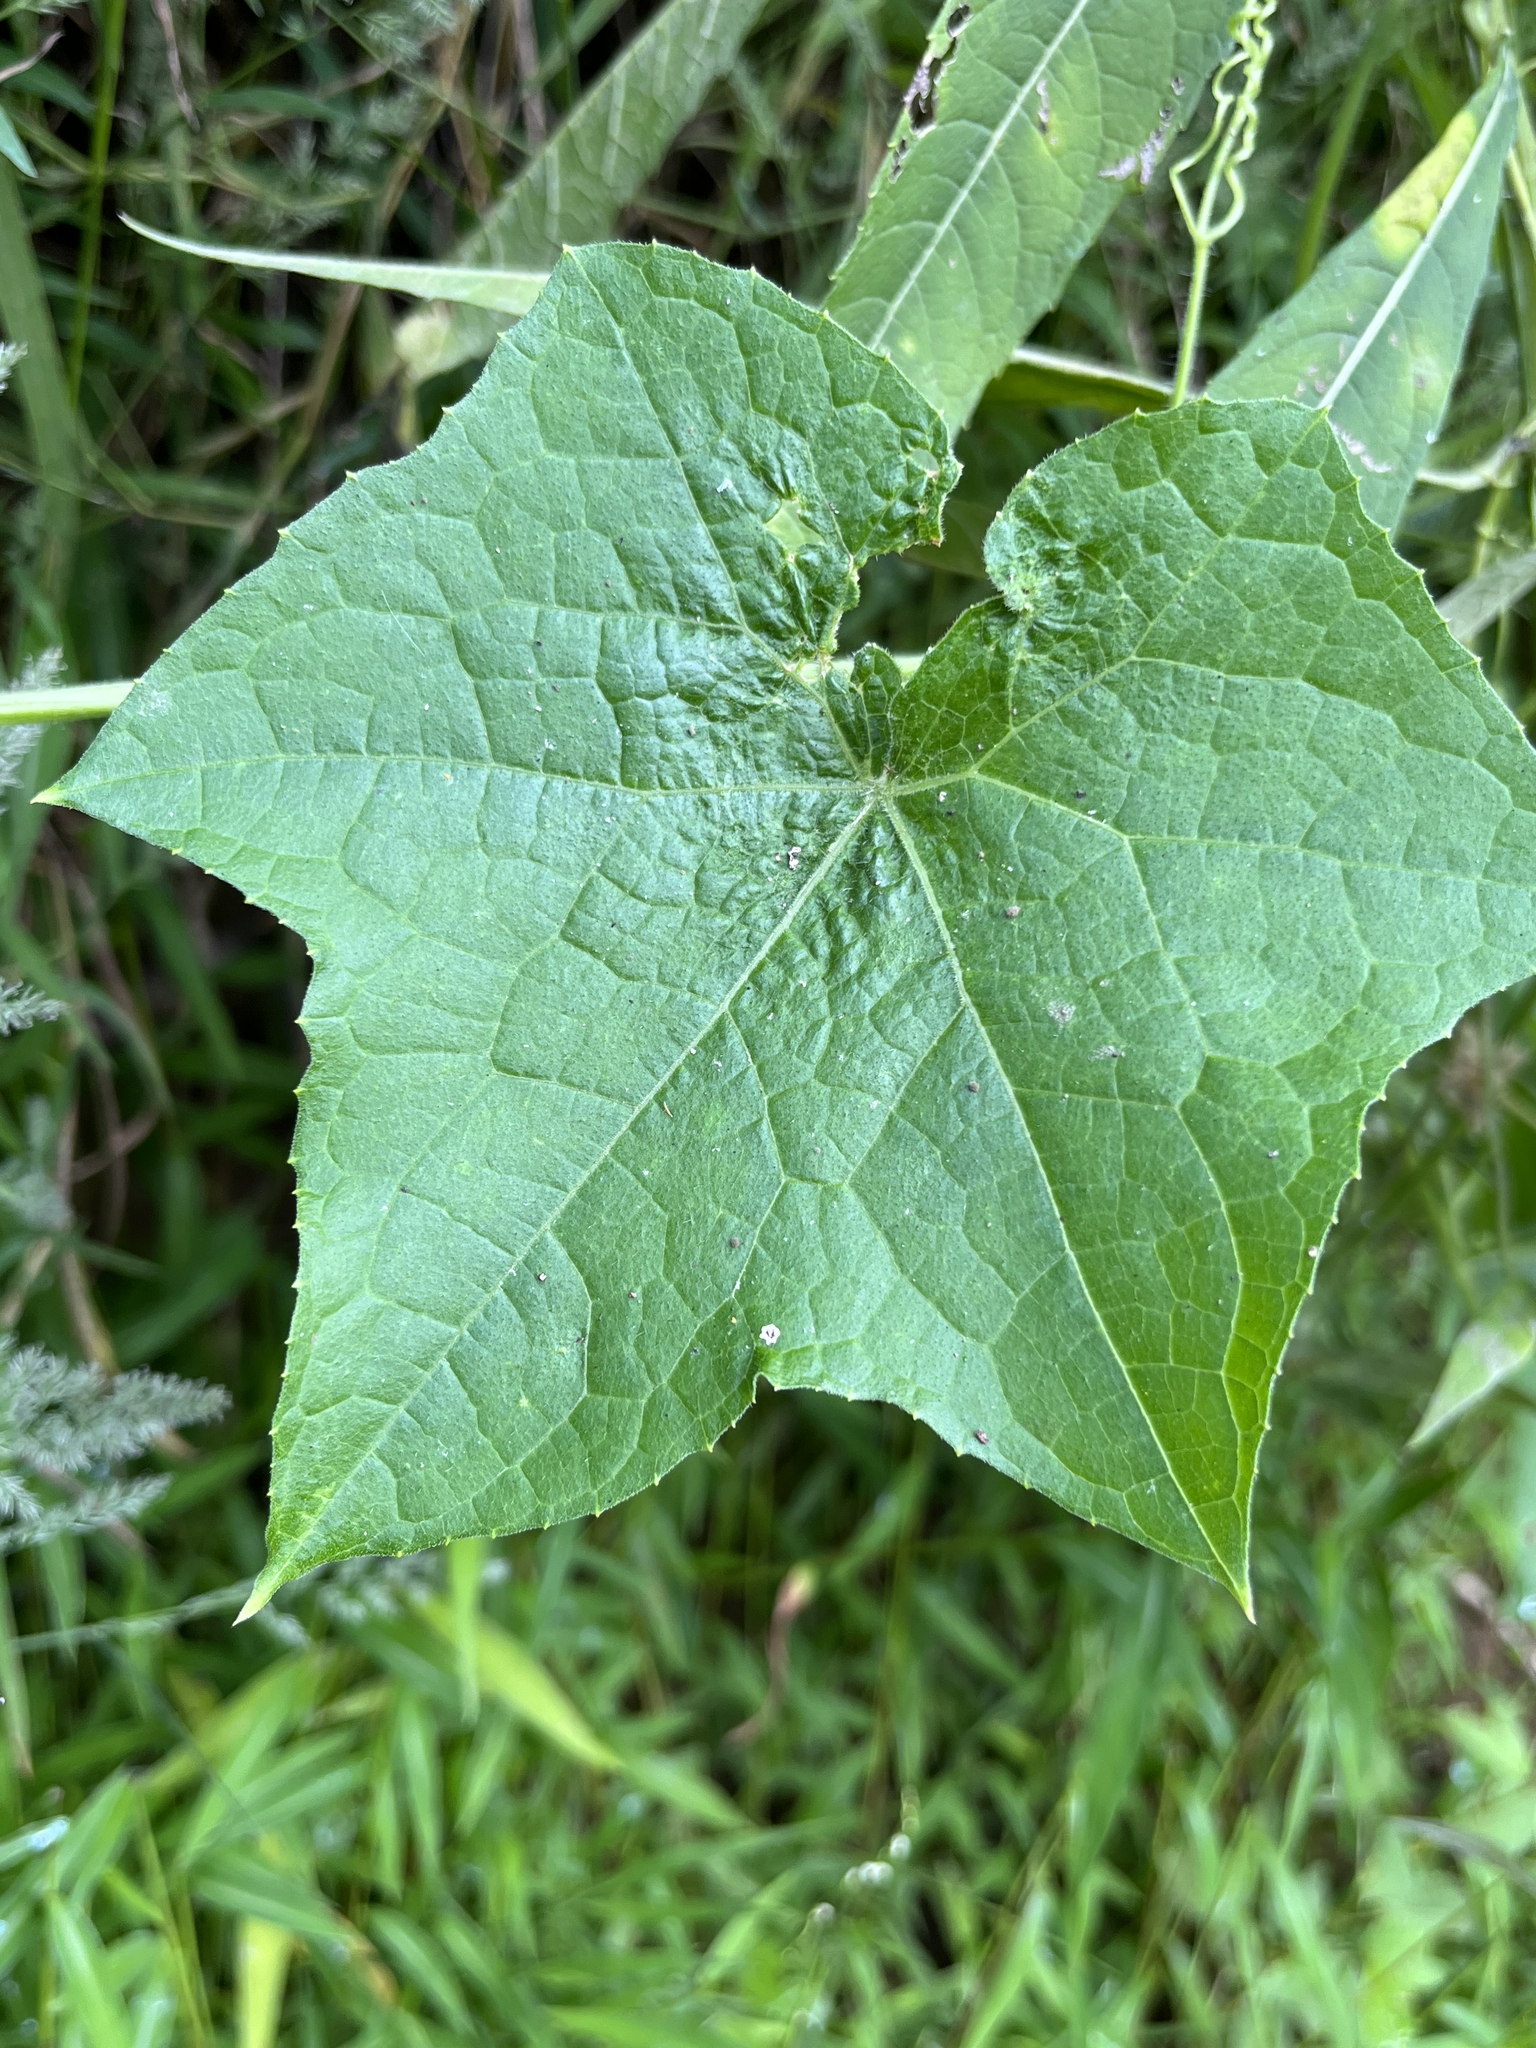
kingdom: Plantae
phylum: Tracheophyta
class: Magnoliopsida
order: Cucurbitales
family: Cucurbitaceae
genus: Sicyos
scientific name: Sicyos angulatus
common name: Angled burr cucumber
